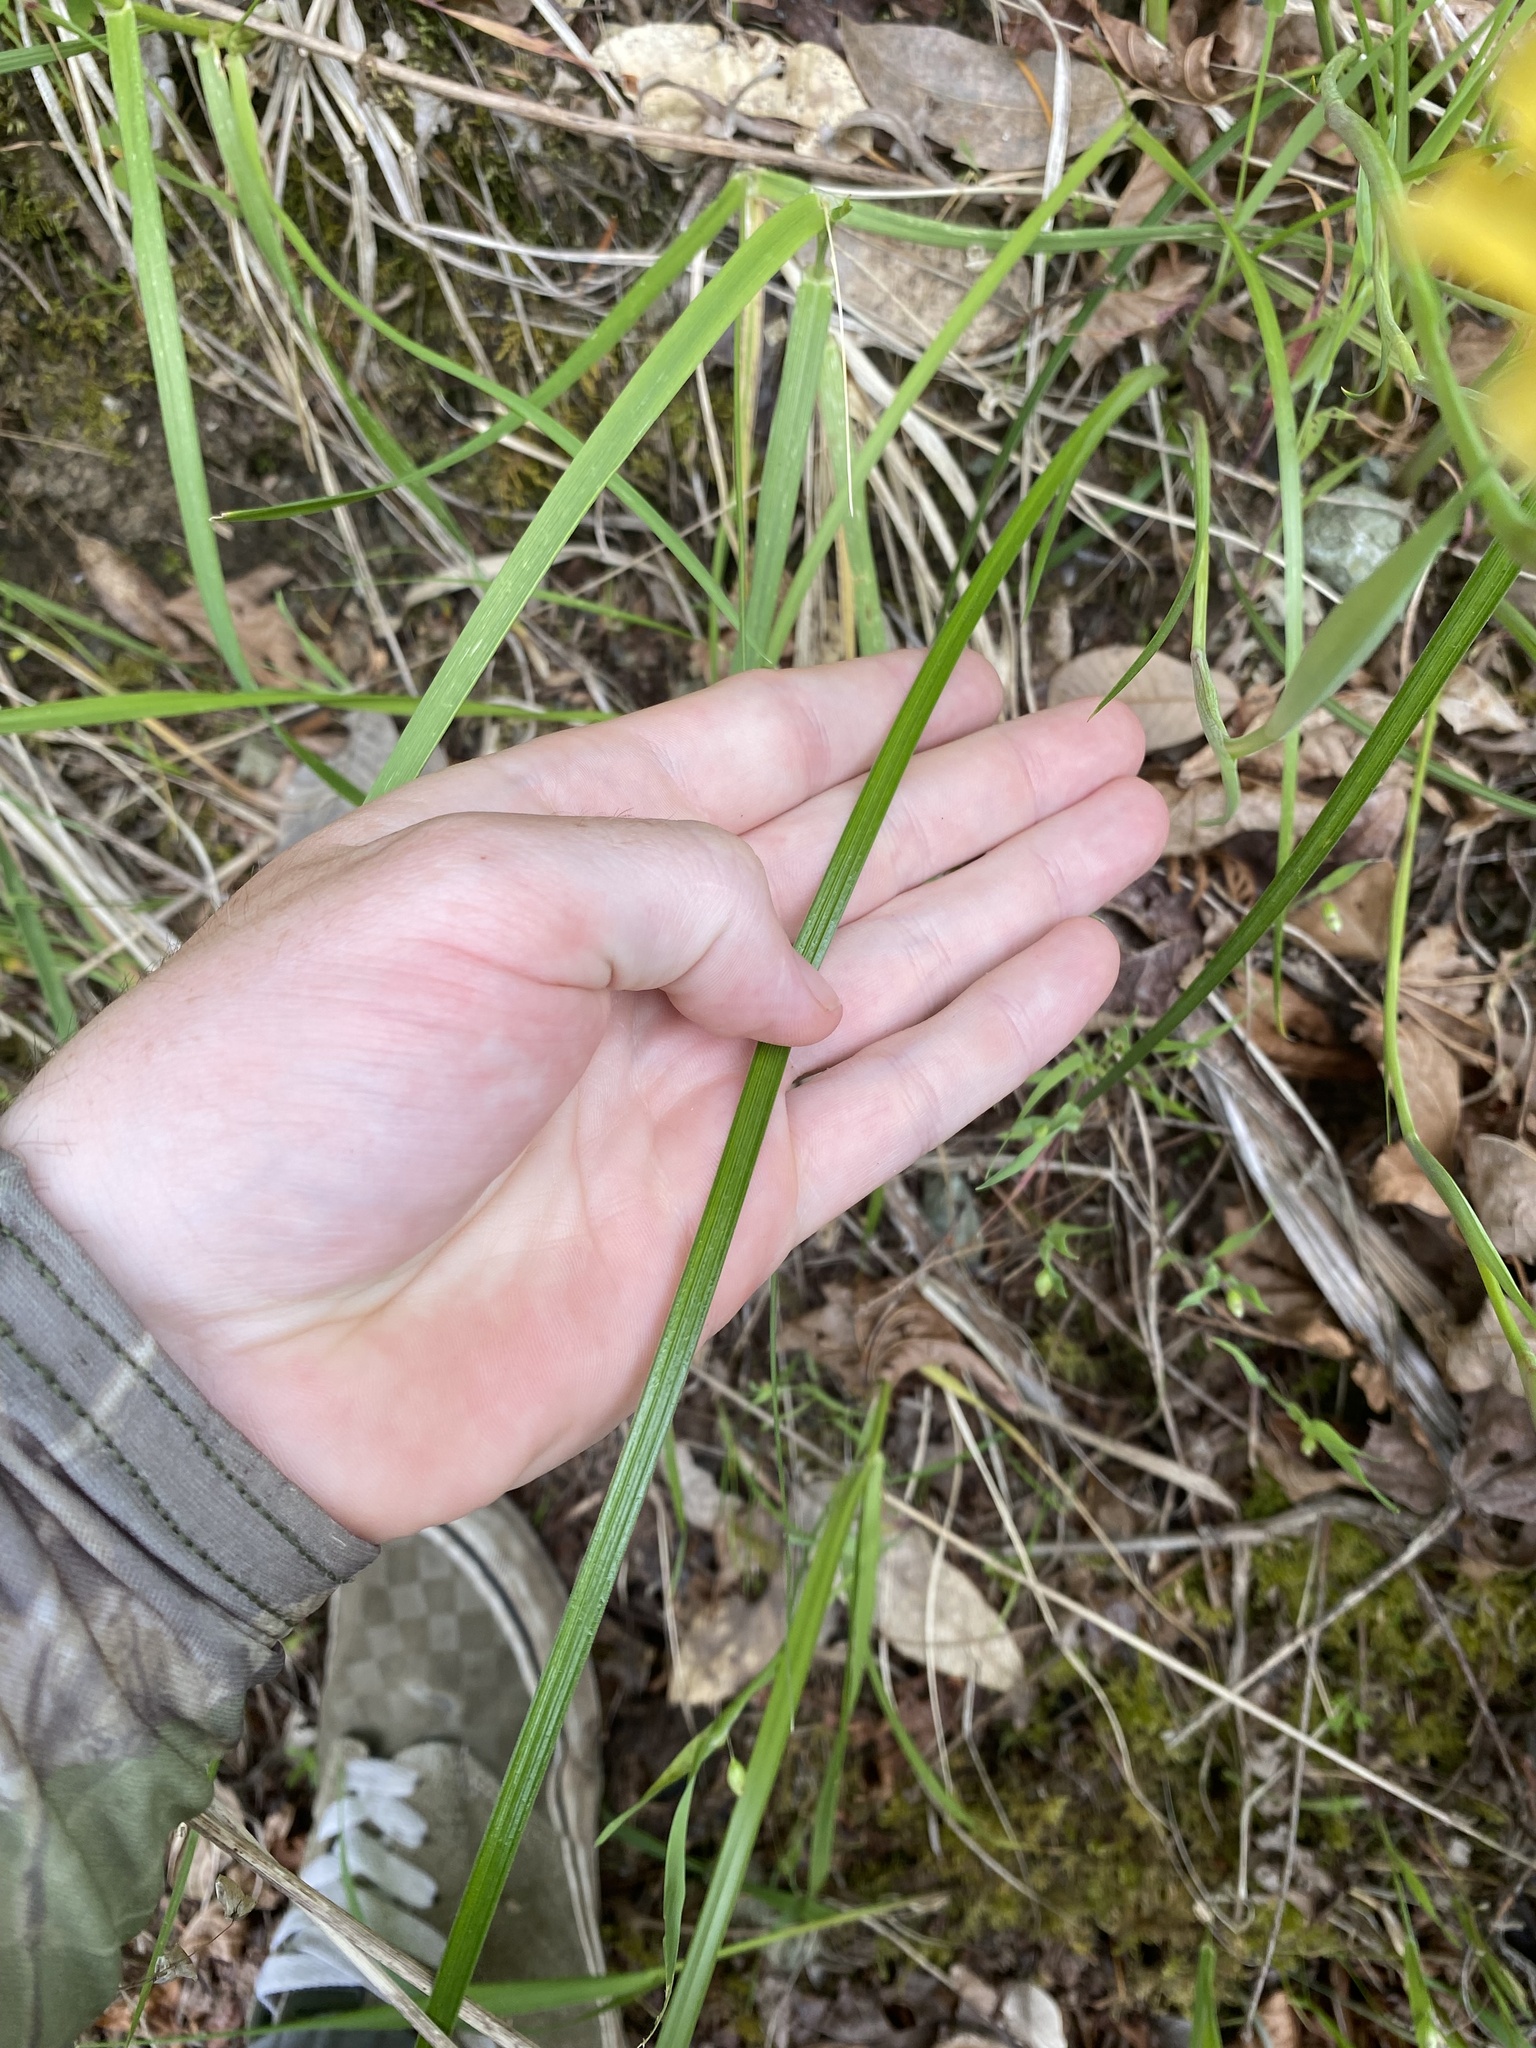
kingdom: Plantae
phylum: Tracheophyta
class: Liliopsida
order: Asparagales
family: Iridaceae
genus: Iris
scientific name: Iris innominata
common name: Del norte county iris
